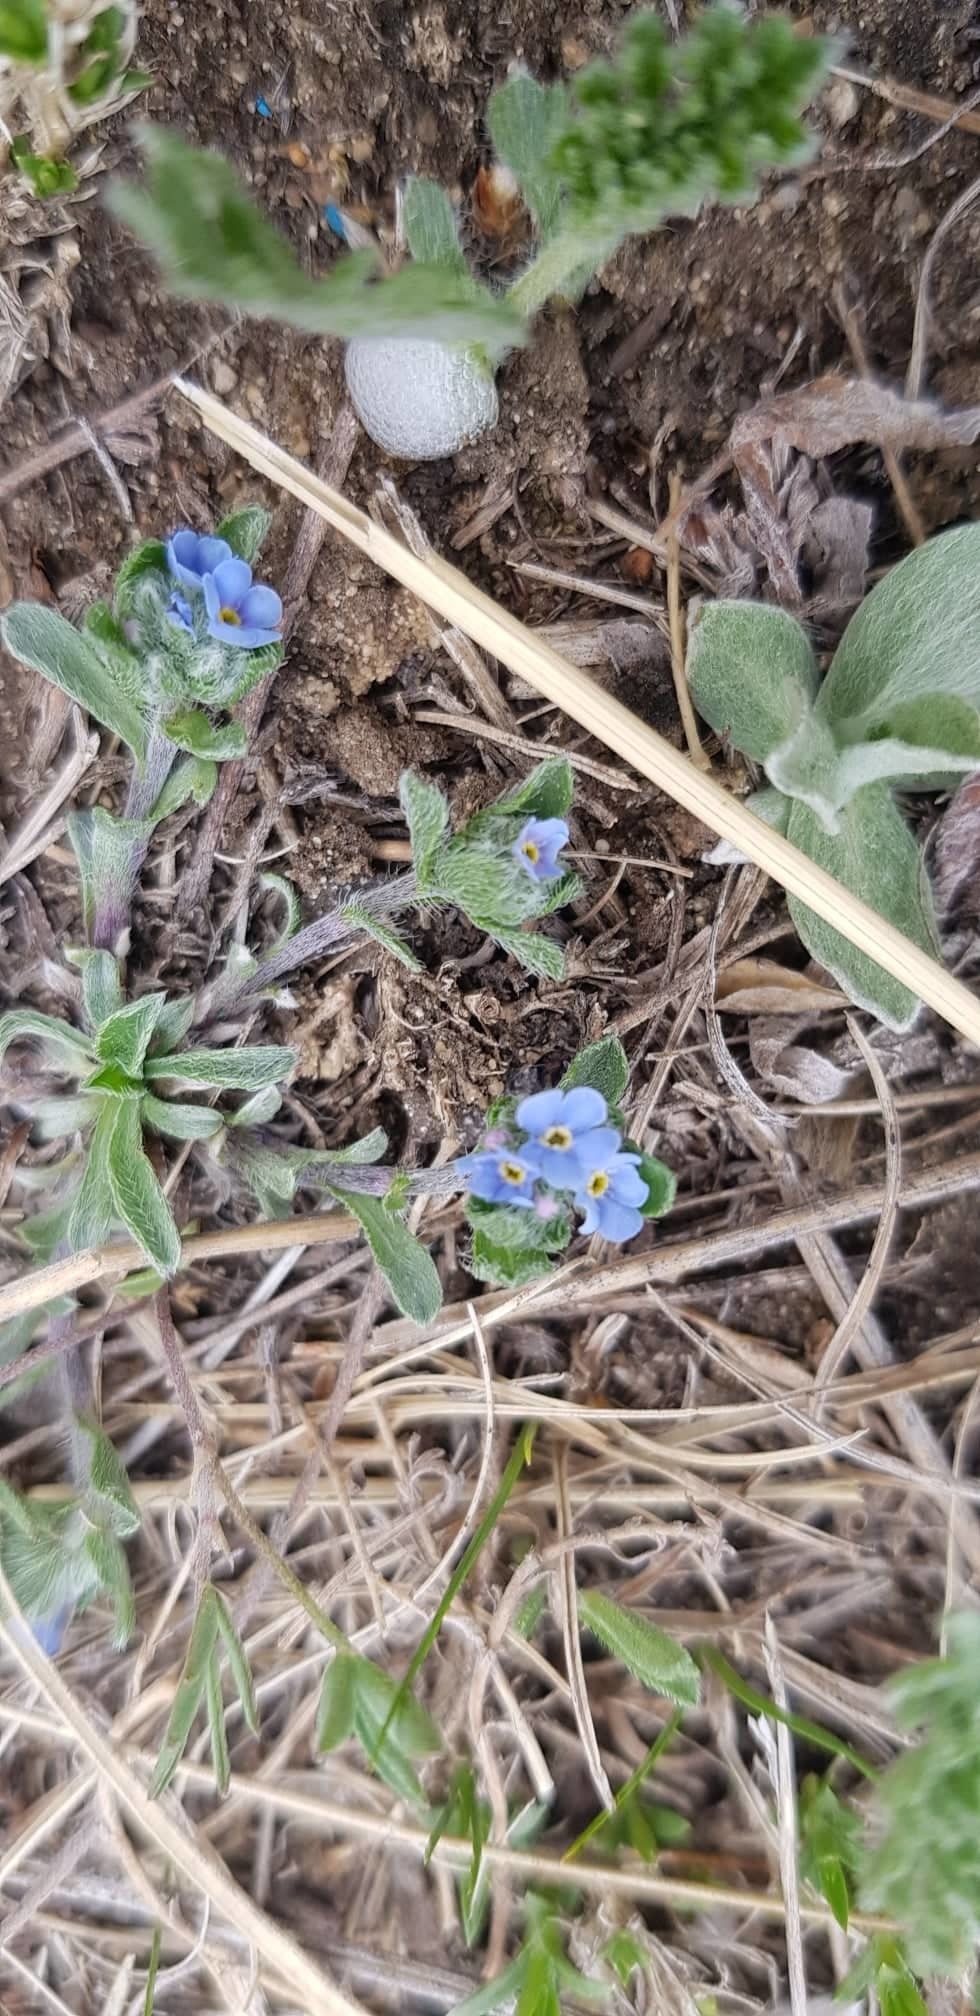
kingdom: Plantae
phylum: Tracheophyta
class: Magnoliopsida
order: Boraginales
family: Boraginaceae
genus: Eritrichium
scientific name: Eritrichium rupestre
